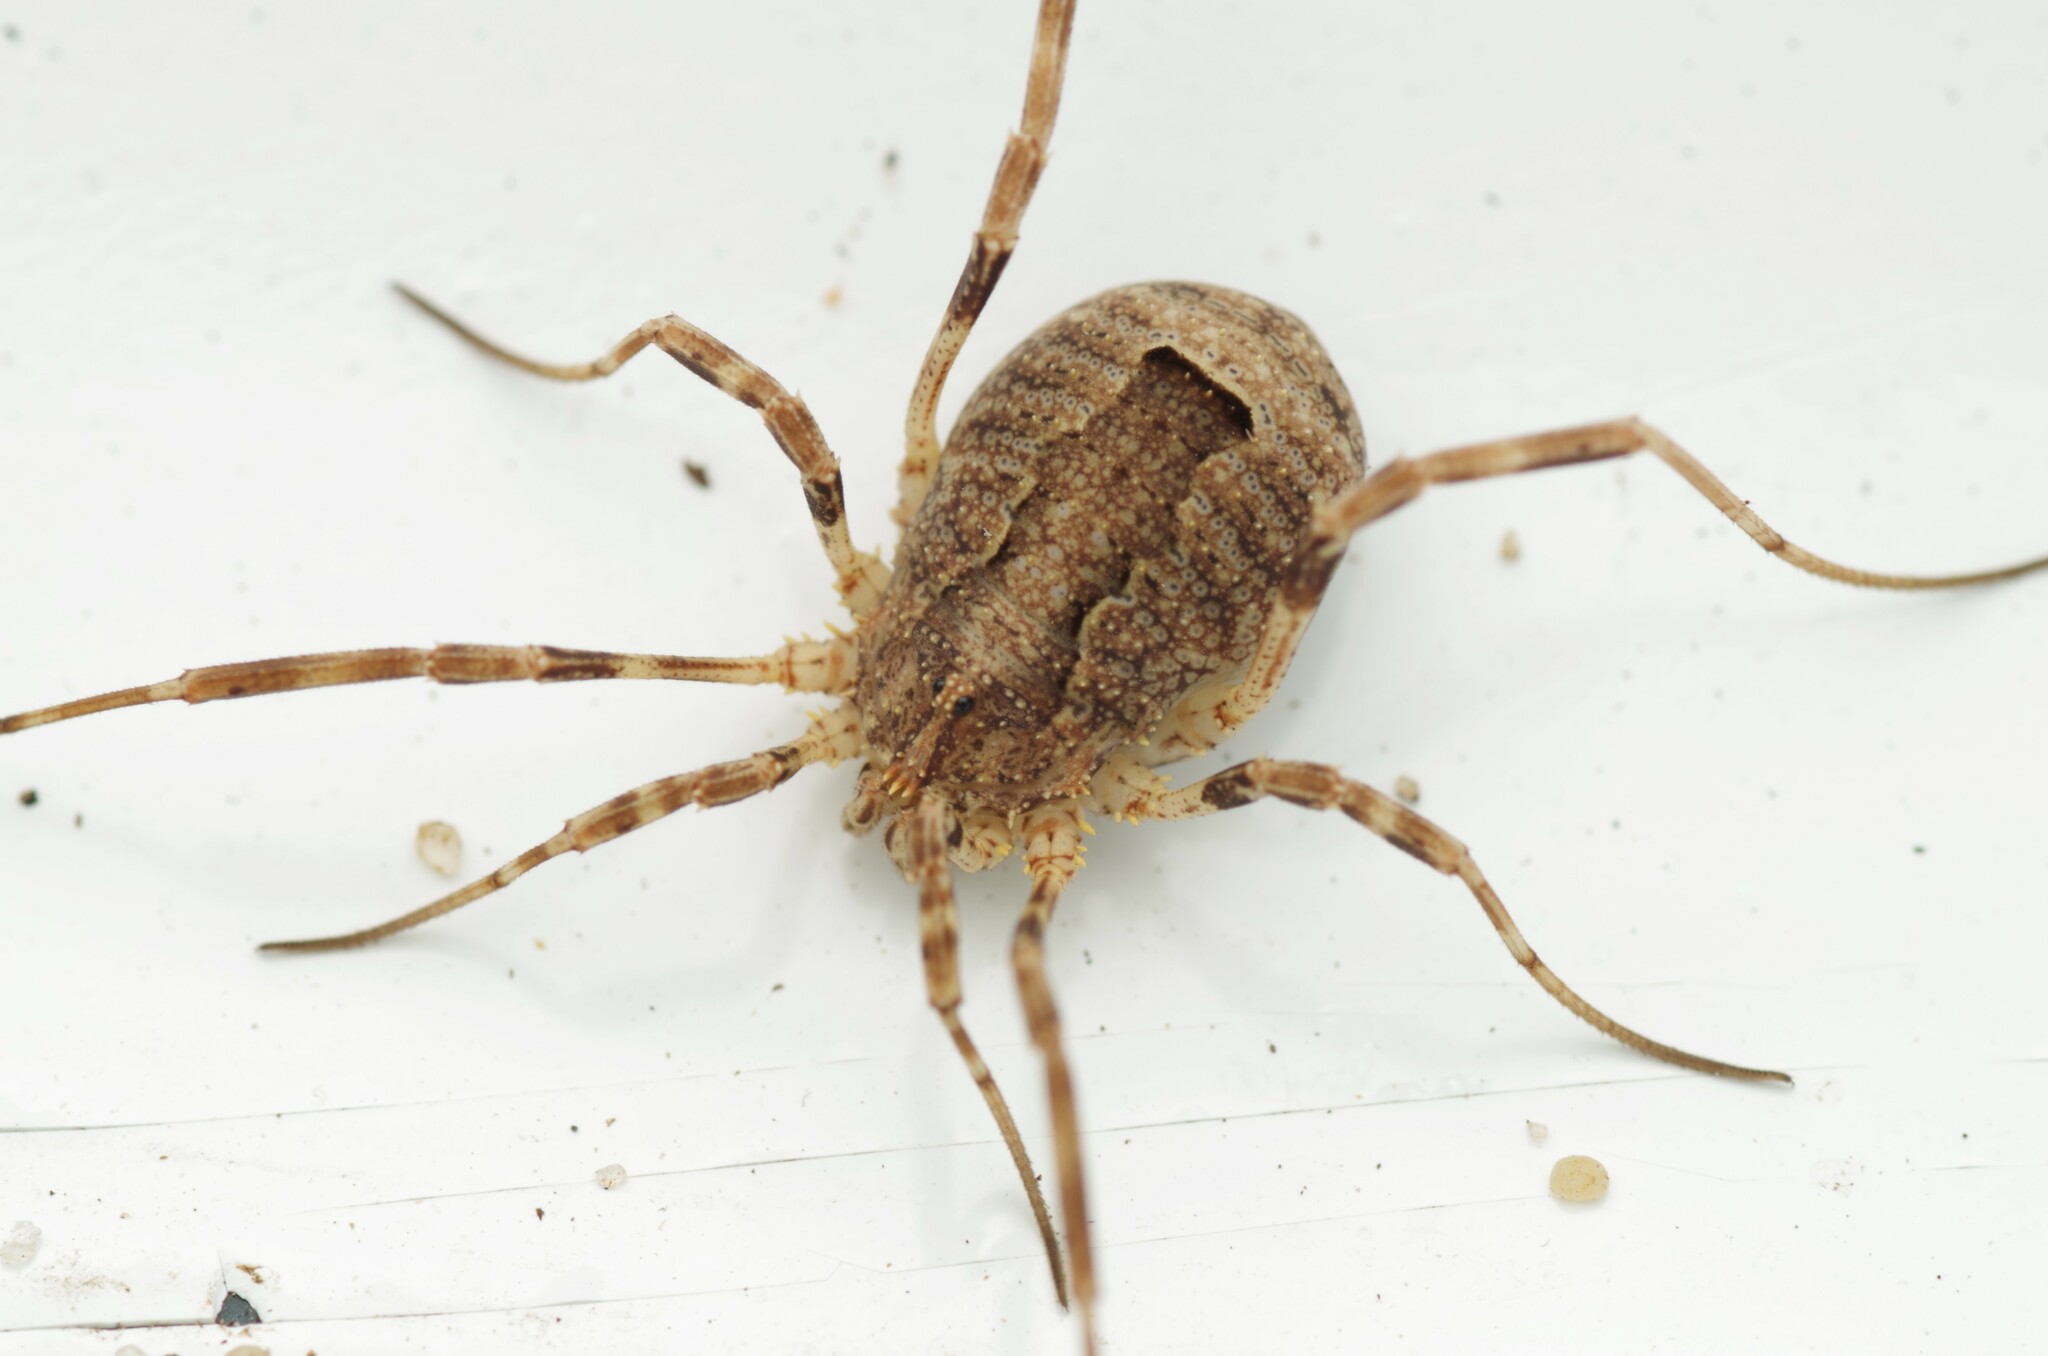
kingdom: Animalia
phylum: Arthropoda
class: Arachnida
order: Opiliones
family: Phalangiidae
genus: Odiellus
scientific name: Odiellus spinosus
